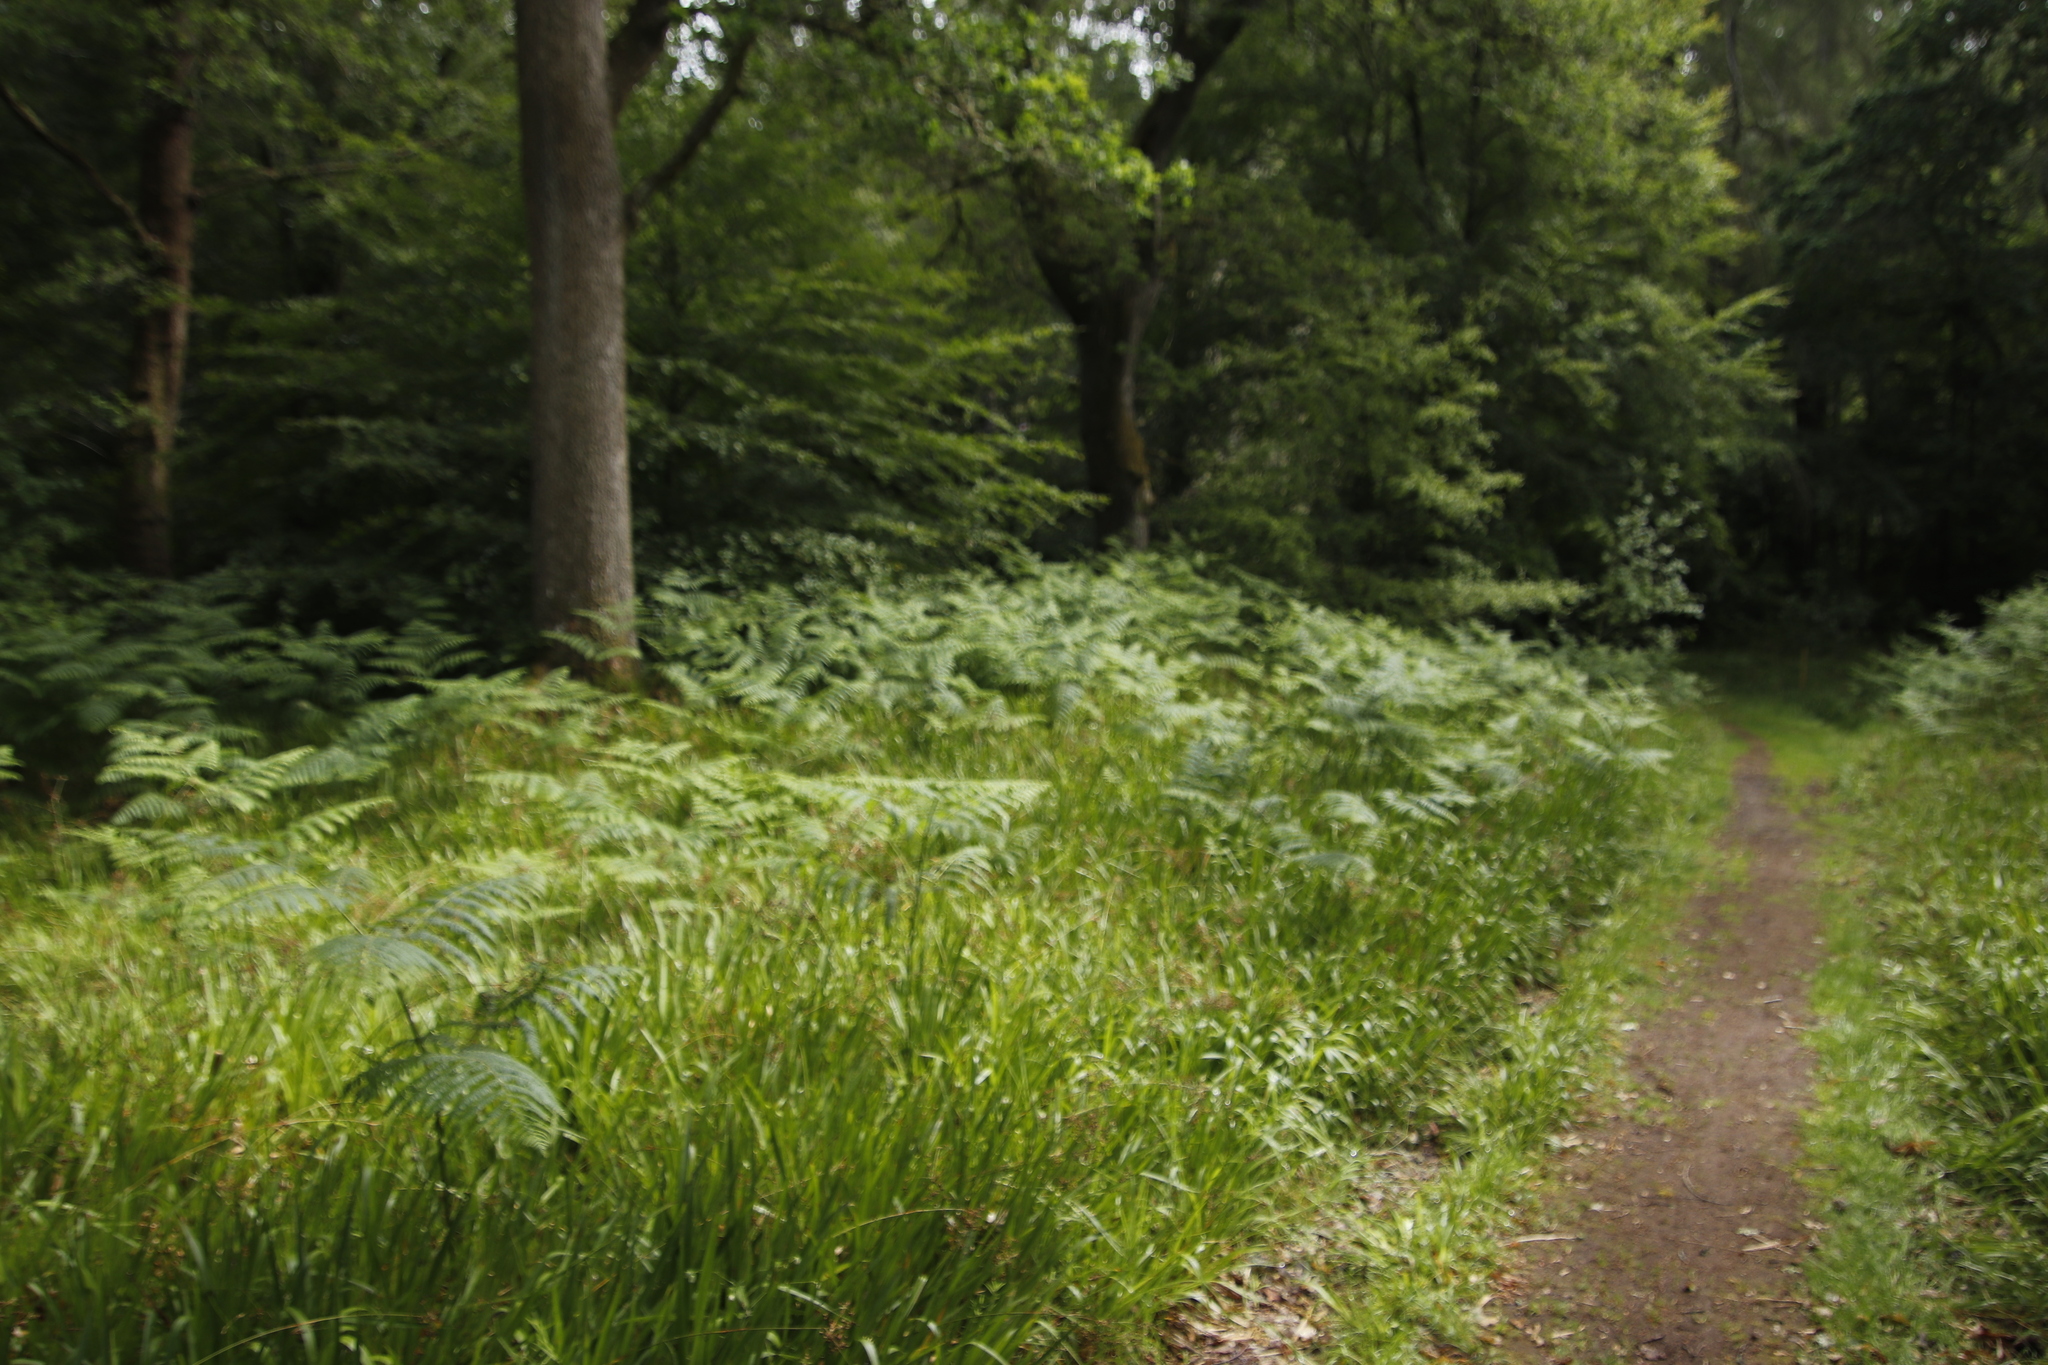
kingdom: Plantae
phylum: Tracheophyta
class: Polypodiopsida
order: Polypodiales
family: Dennstaedtiaceae
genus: Pteridium
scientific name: Pteridium aquilinum
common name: Bracken
